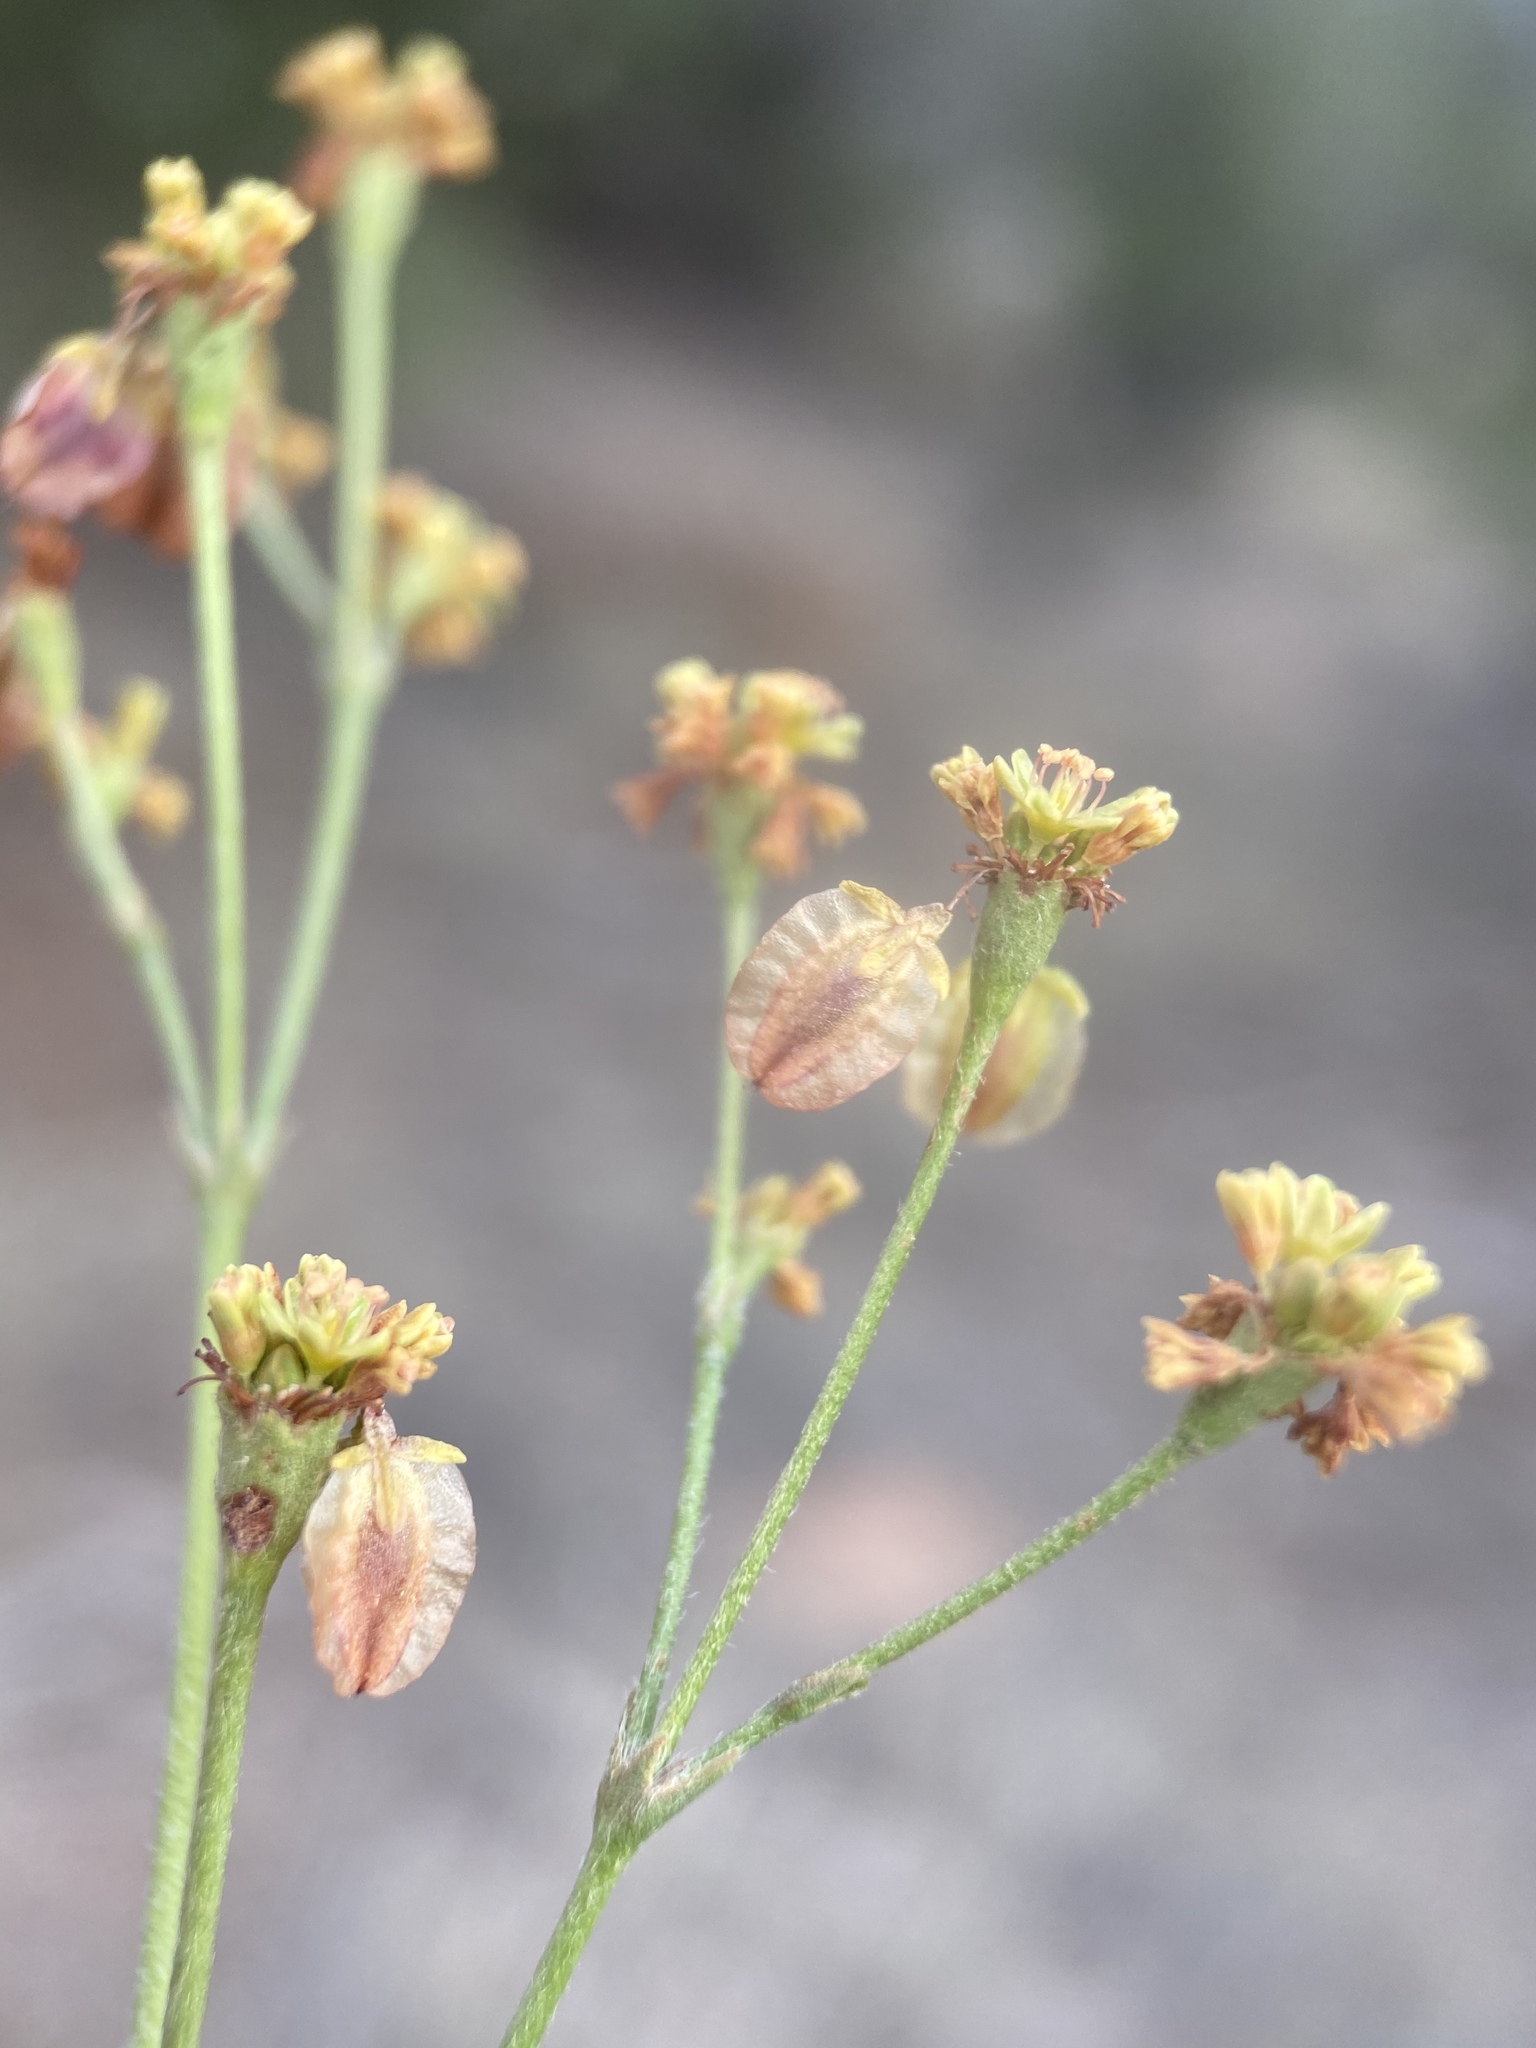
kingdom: Plantae
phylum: Tracheophyta
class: Magnoliopsida
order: Caryophyllales
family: Polygonaceae
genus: Eriogonum
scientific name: Eriogonum alatum
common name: Winged eriogonum
